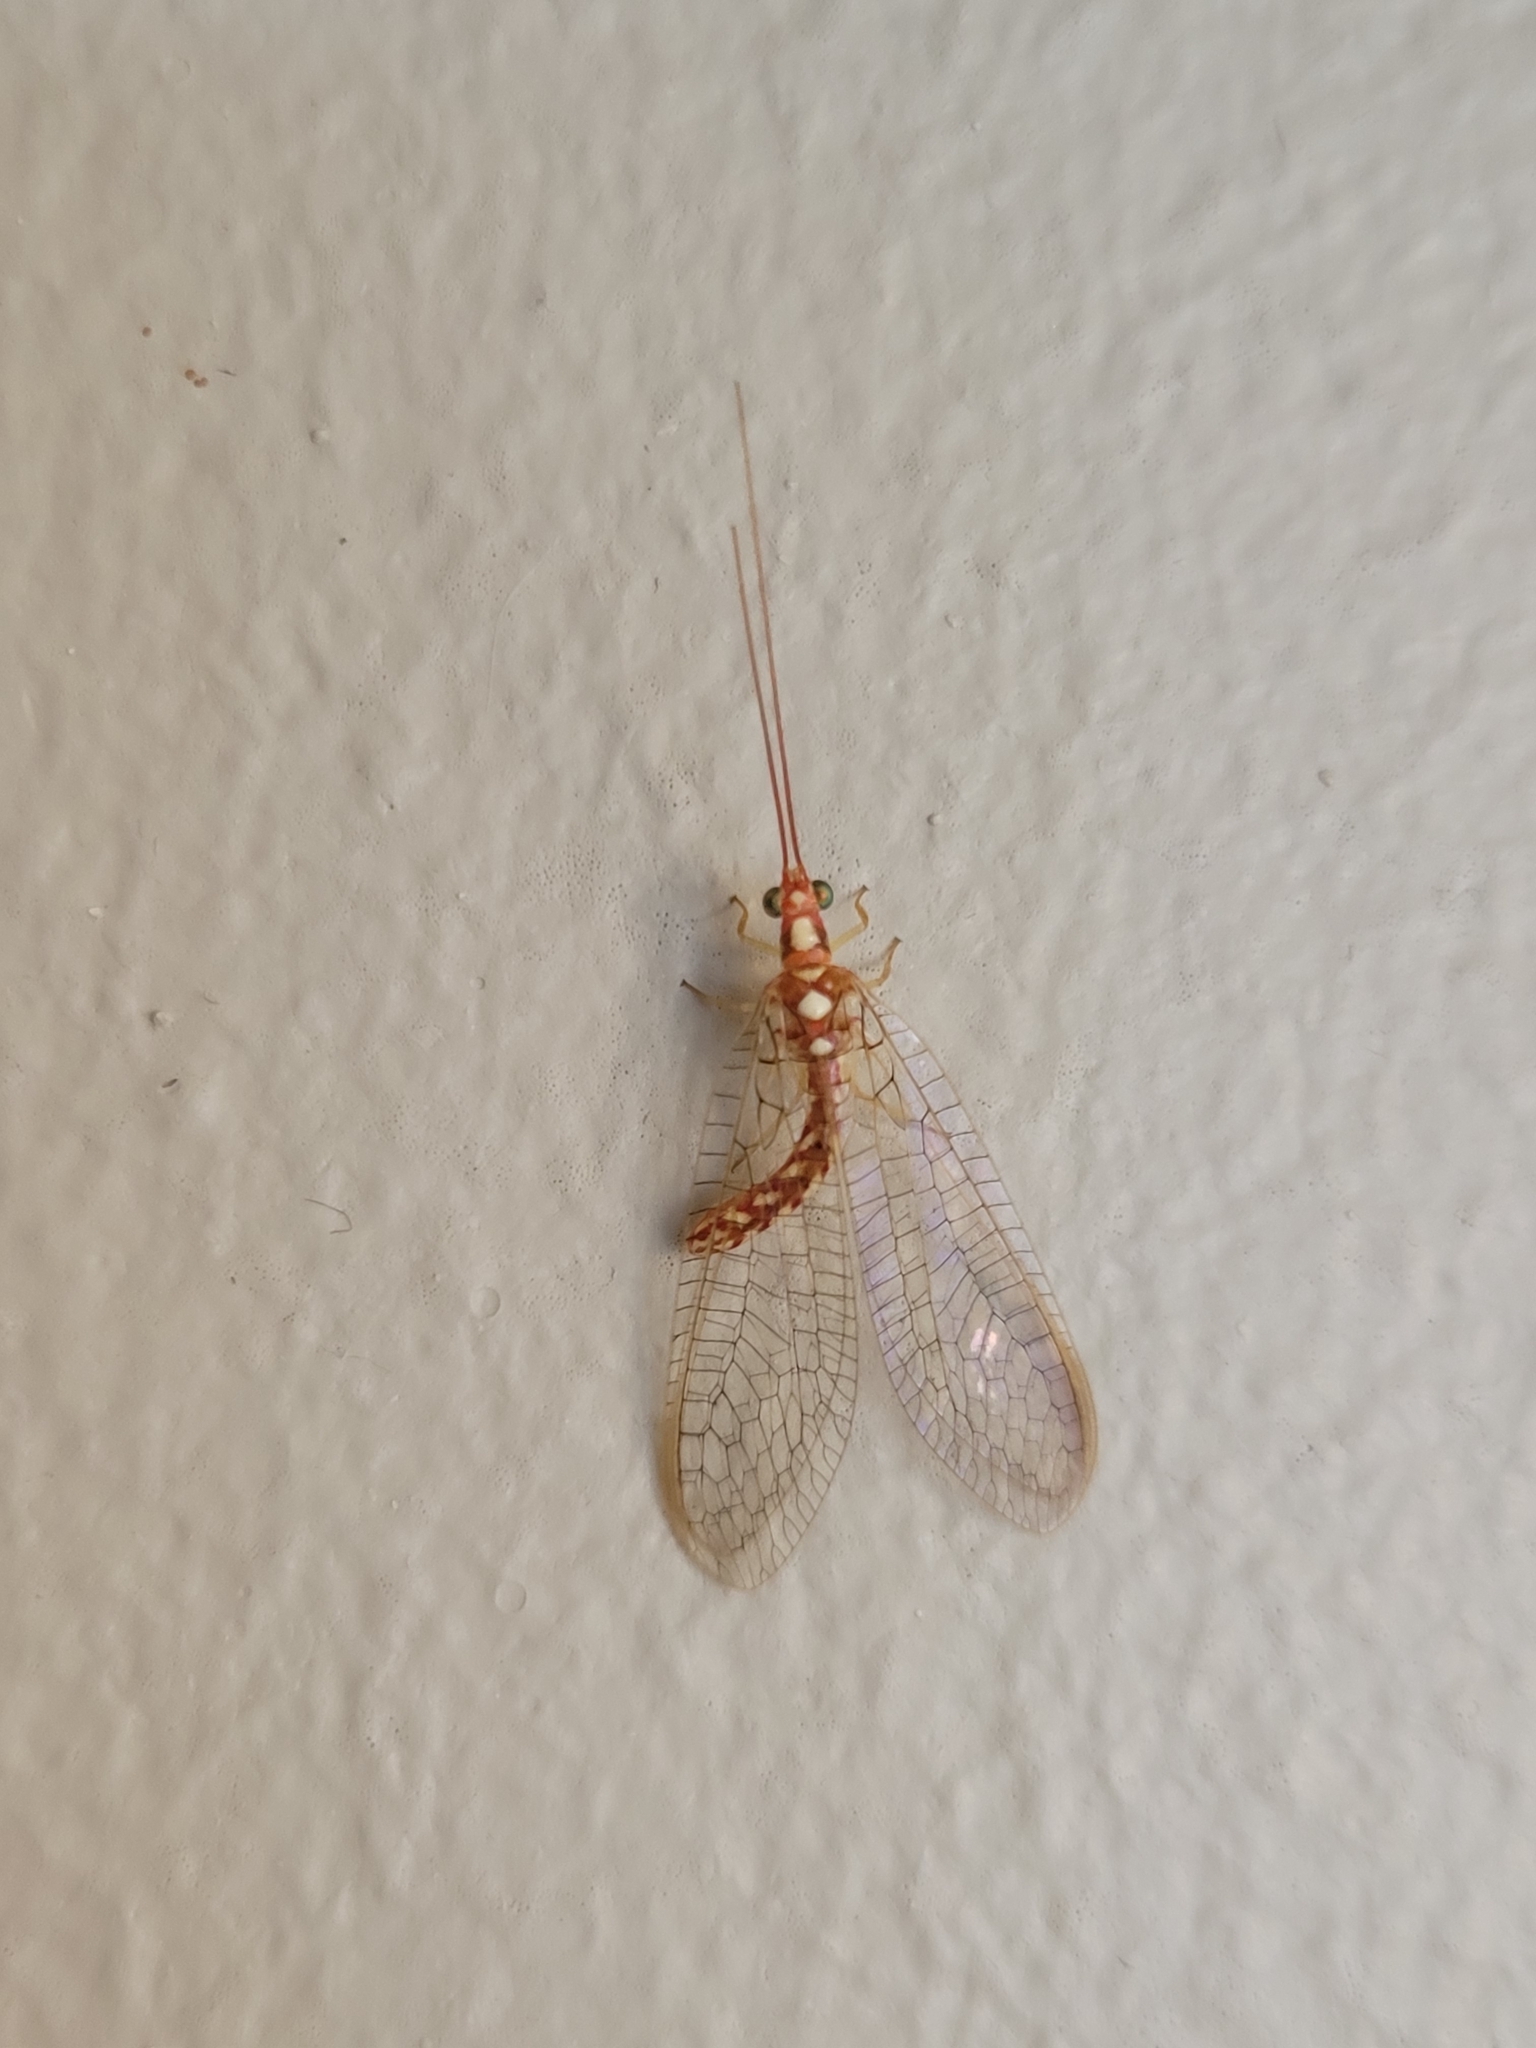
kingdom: Animalia
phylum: Arthropoda
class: Insecta
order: Neuroptera
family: Chrysopidae
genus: Dysochrysa
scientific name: Dysochrysa furcata
